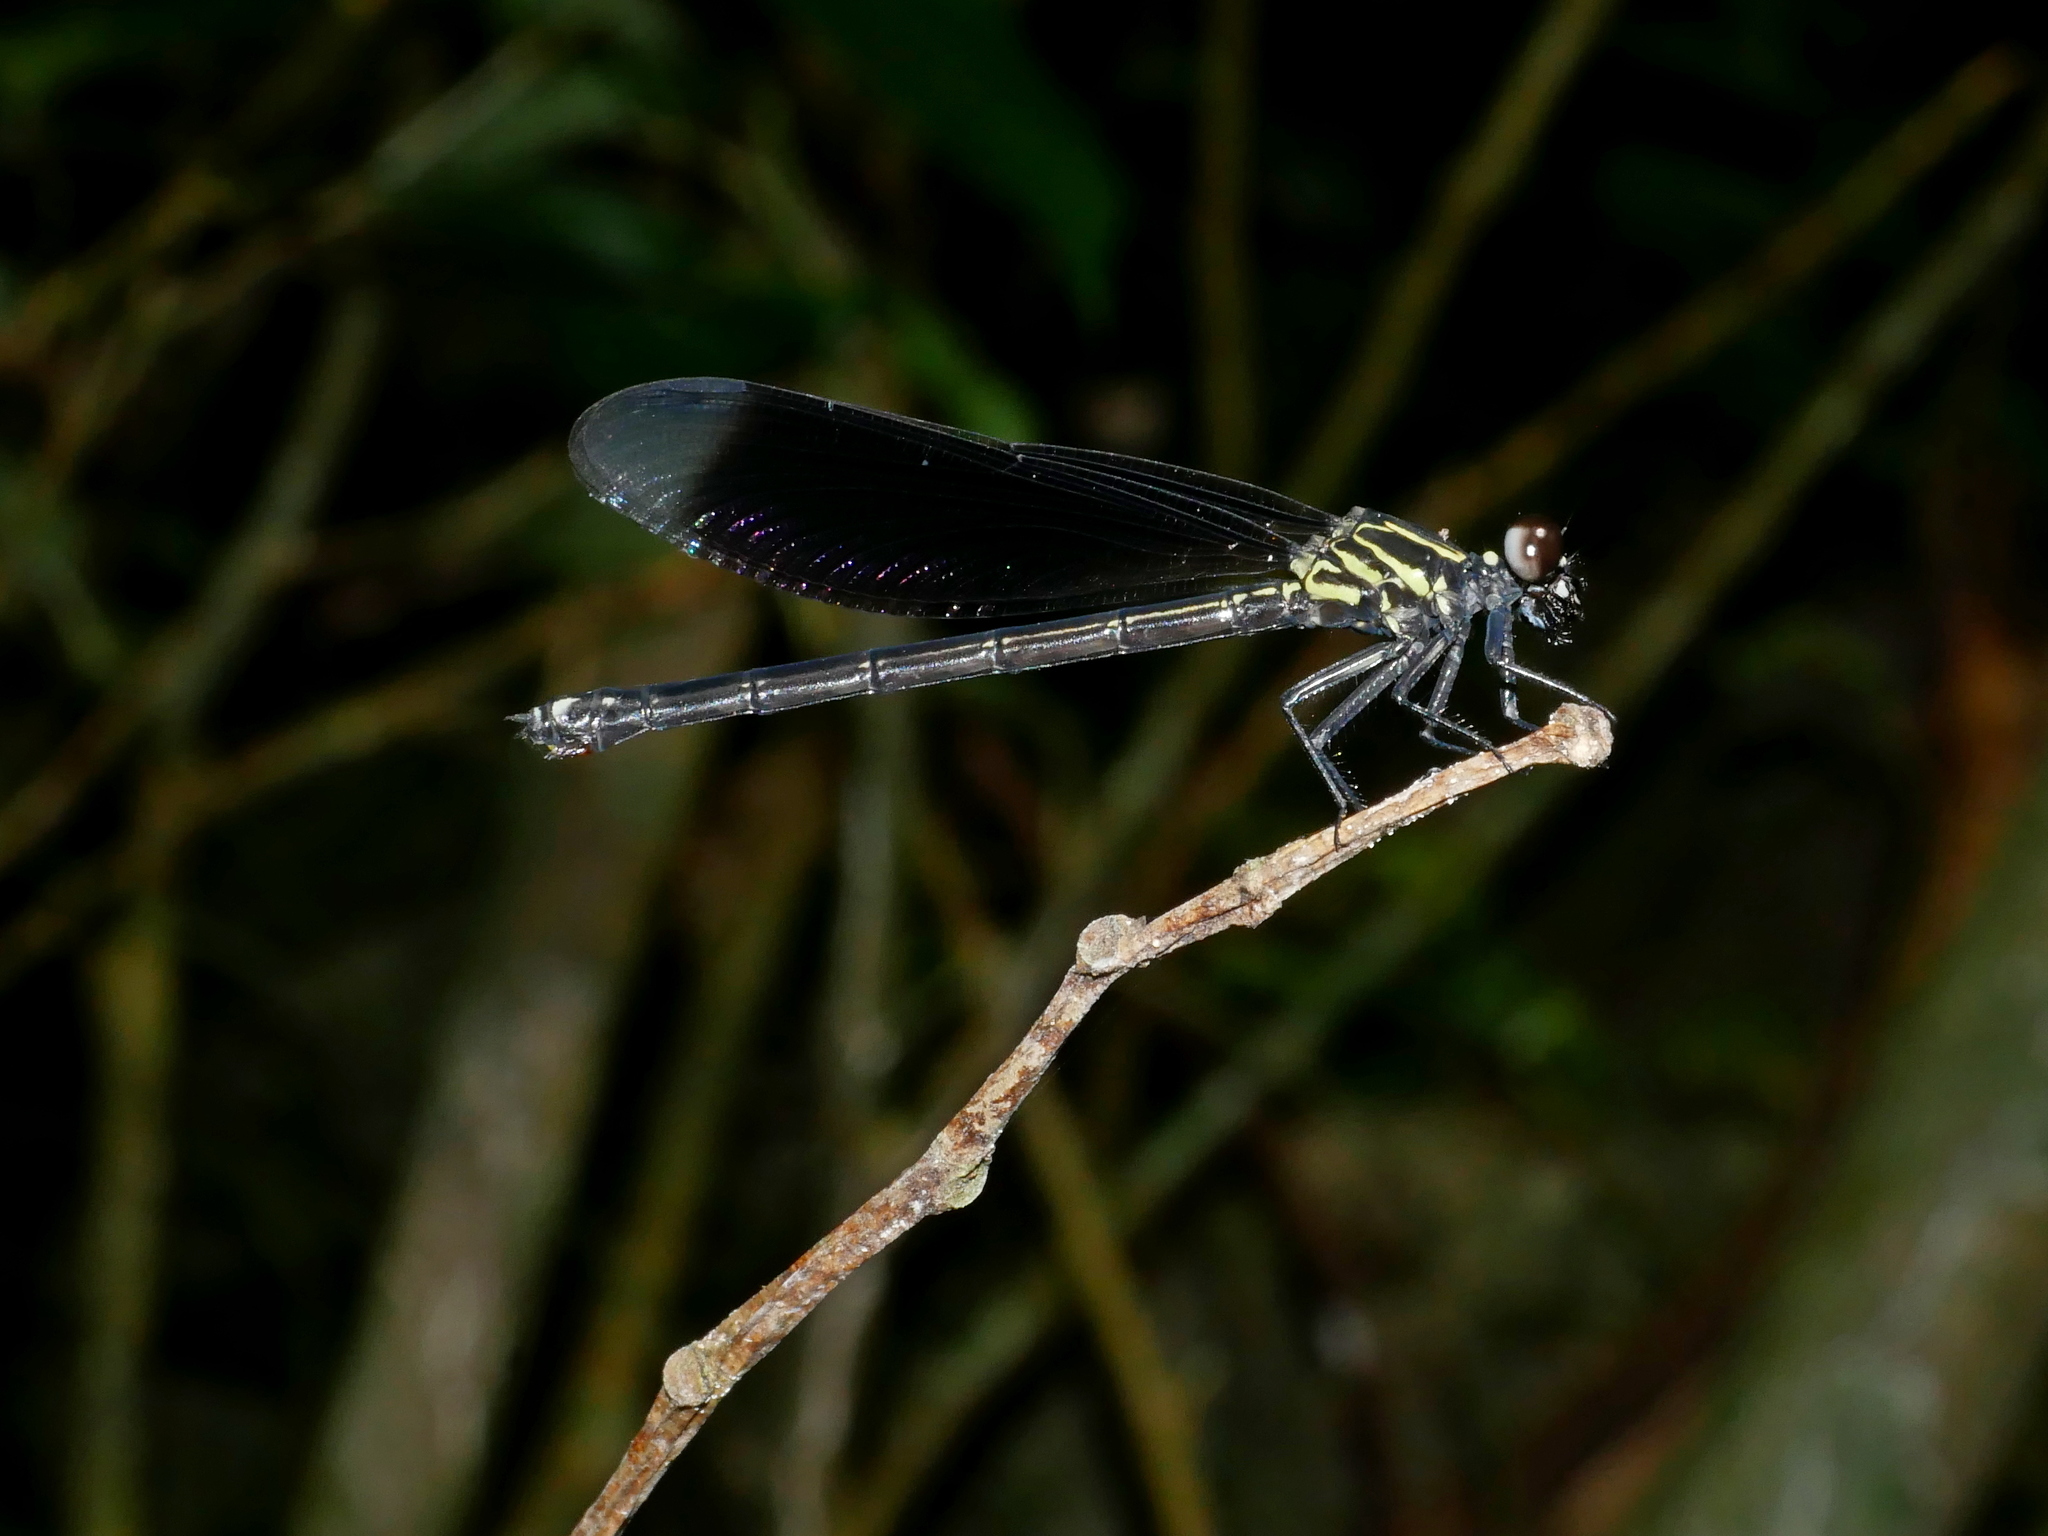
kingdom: Animalia
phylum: Arthropoda
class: Insecta
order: Odonata
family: Euphaeidae
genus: Euphaea
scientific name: Euphaea formosa
